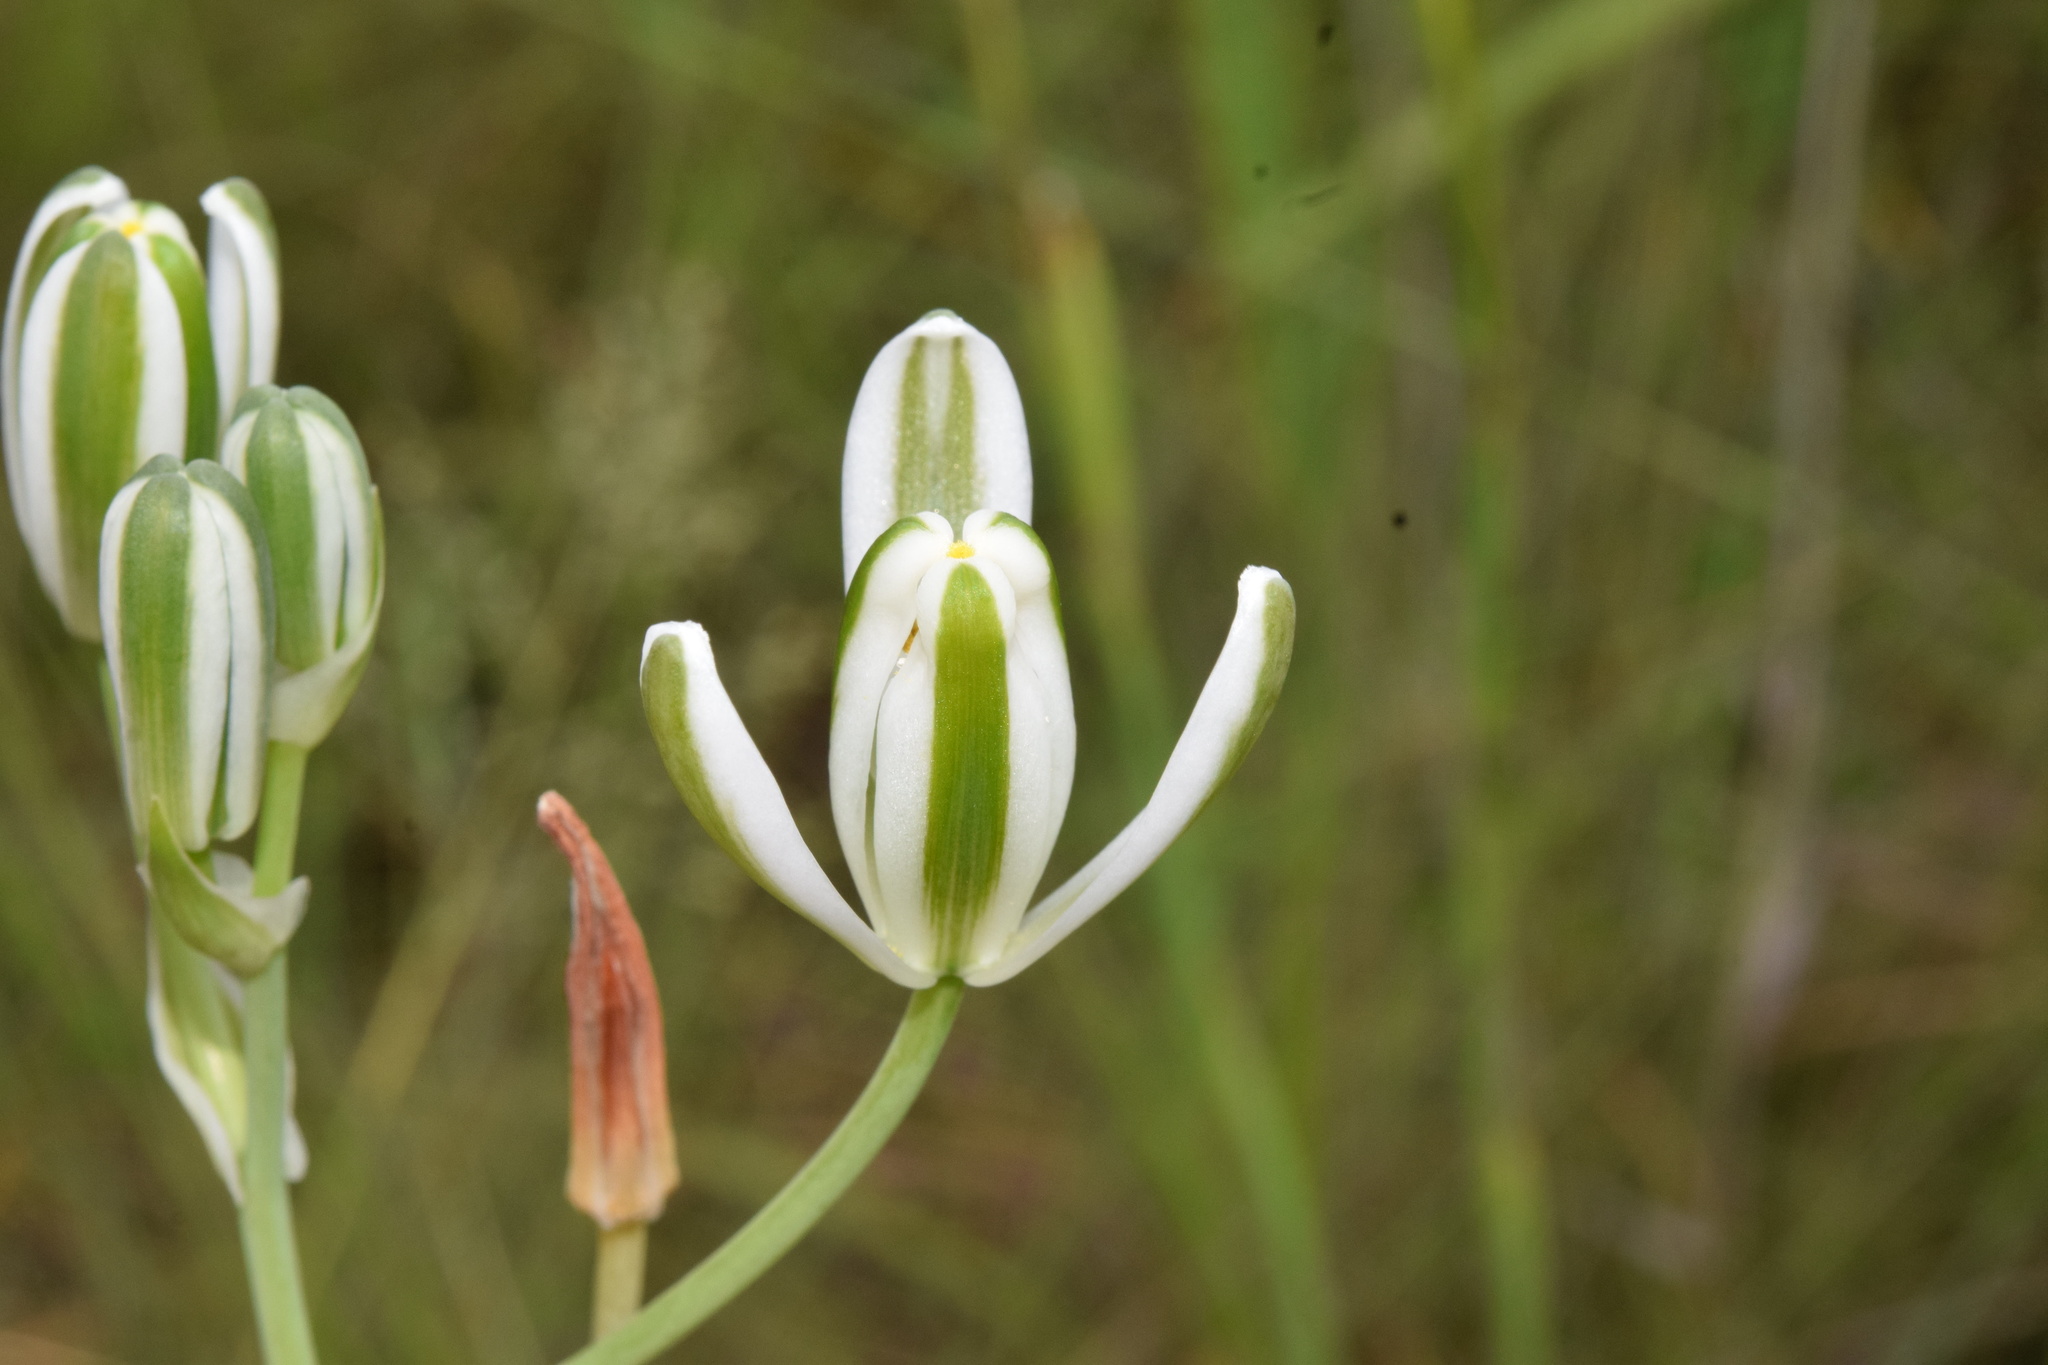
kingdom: Plantae
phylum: Tracheophyta
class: Liliopsida
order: Asparagales
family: Asparagaceae
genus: Albuca
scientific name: Albuca setosa
